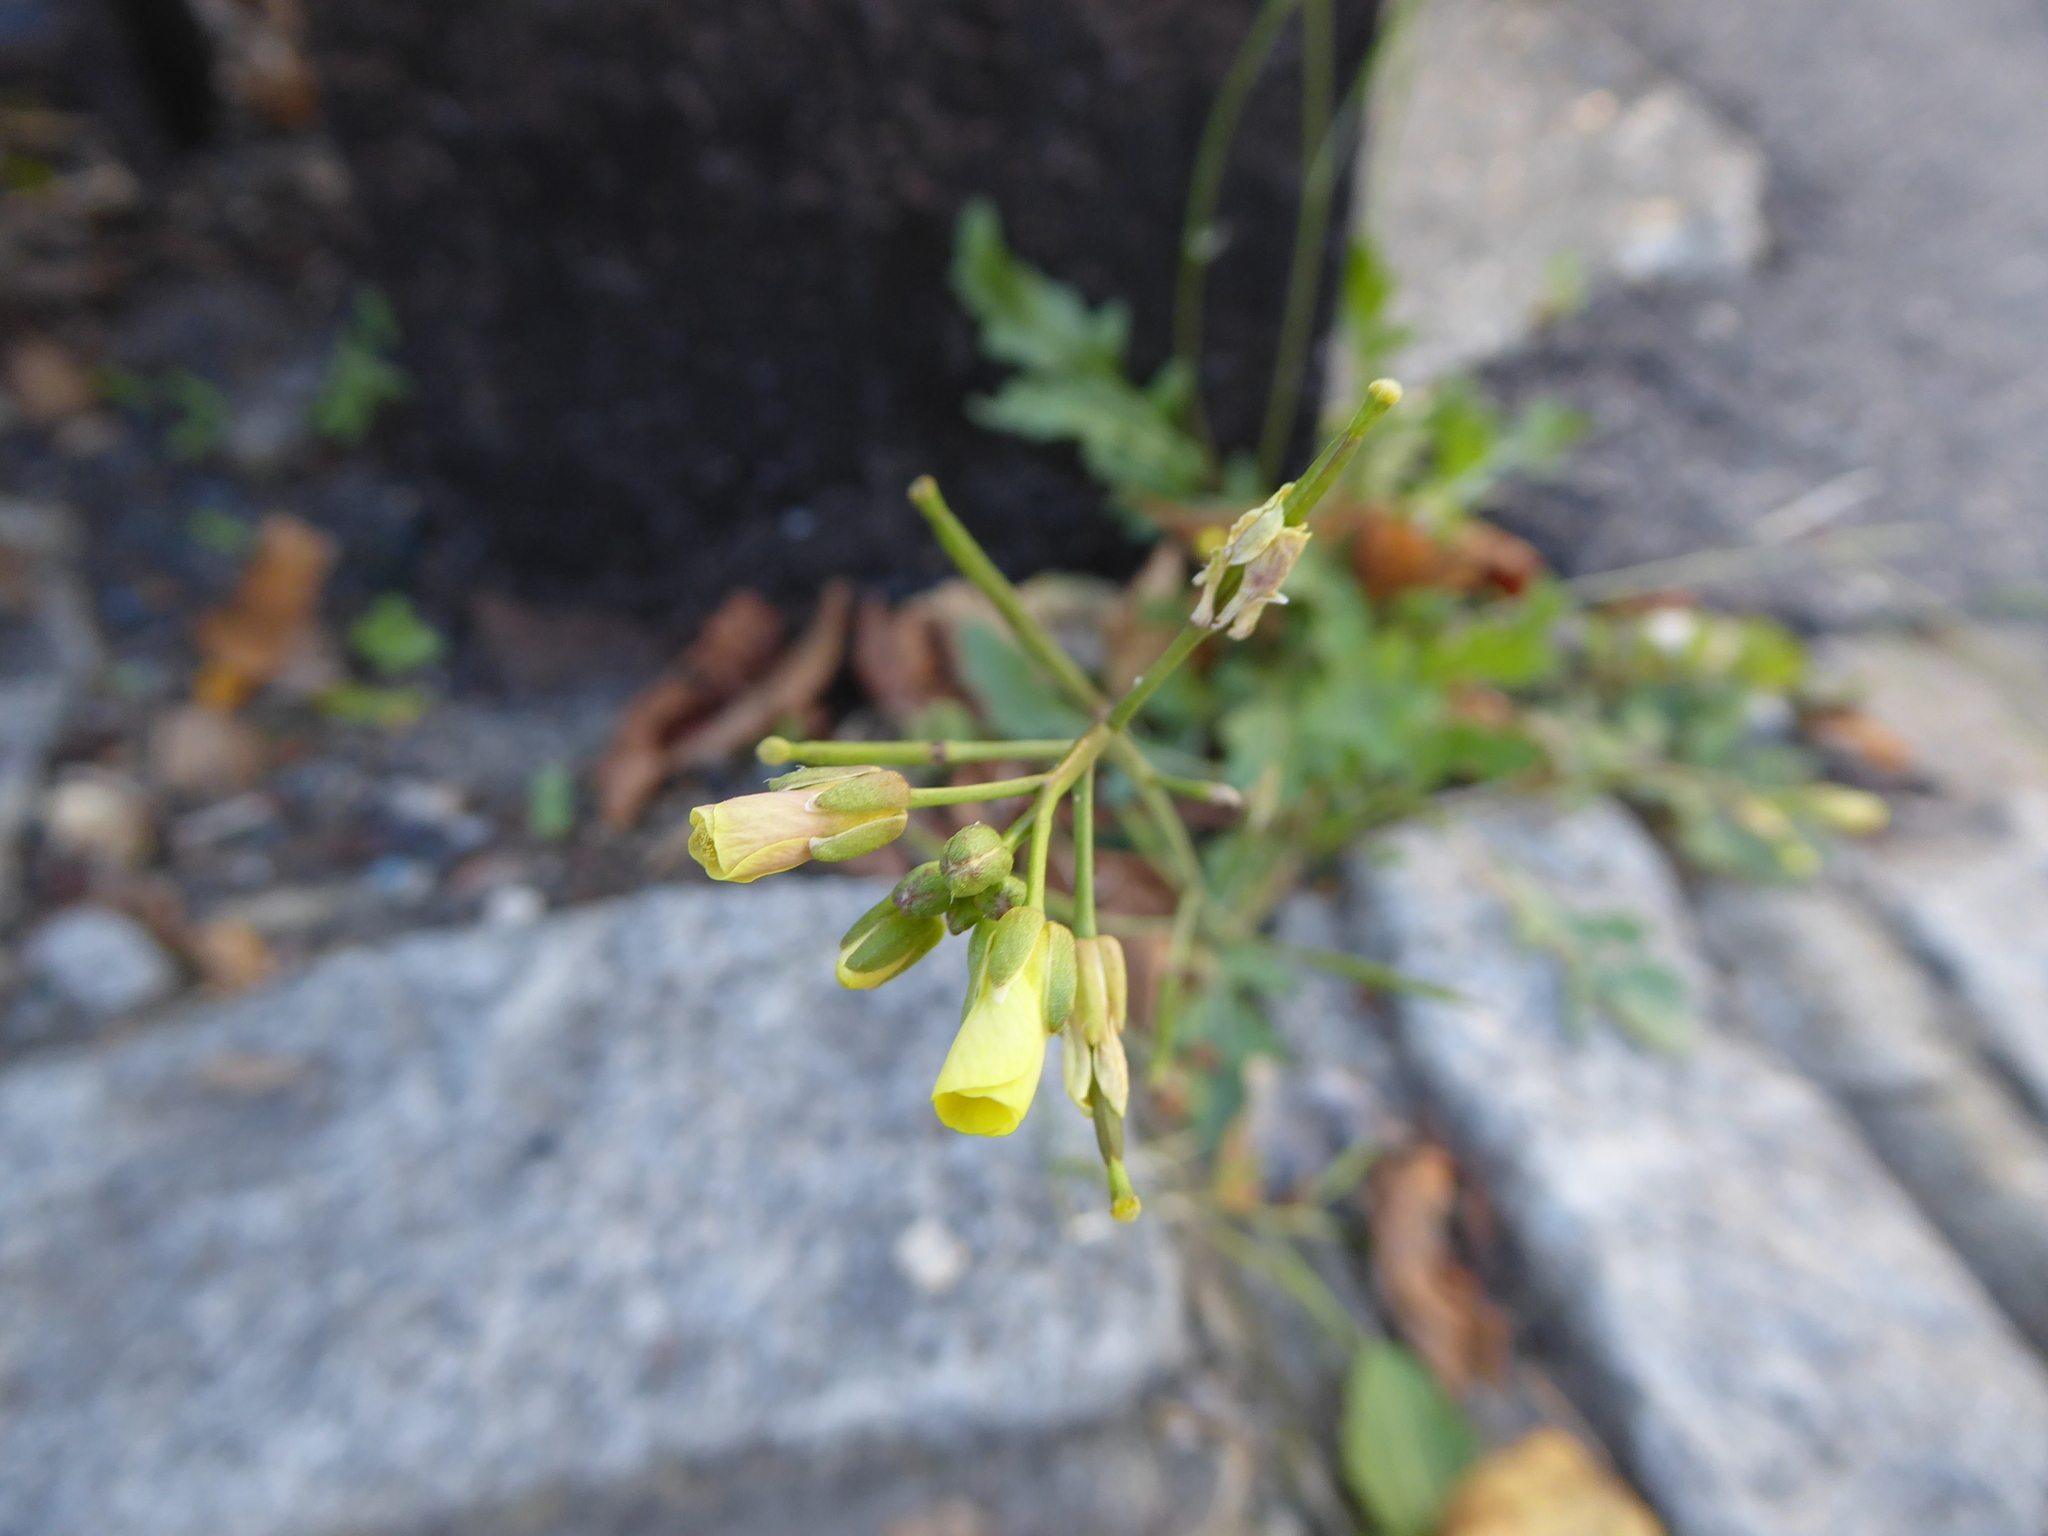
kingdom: Plantae
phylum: Tracheophyta
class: Magnoliopsida
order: Brassicales
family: Brassicaceae
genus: Diplotaxis
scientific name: Diplotaxis tenuifolia
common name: Perennial wall-rocket
